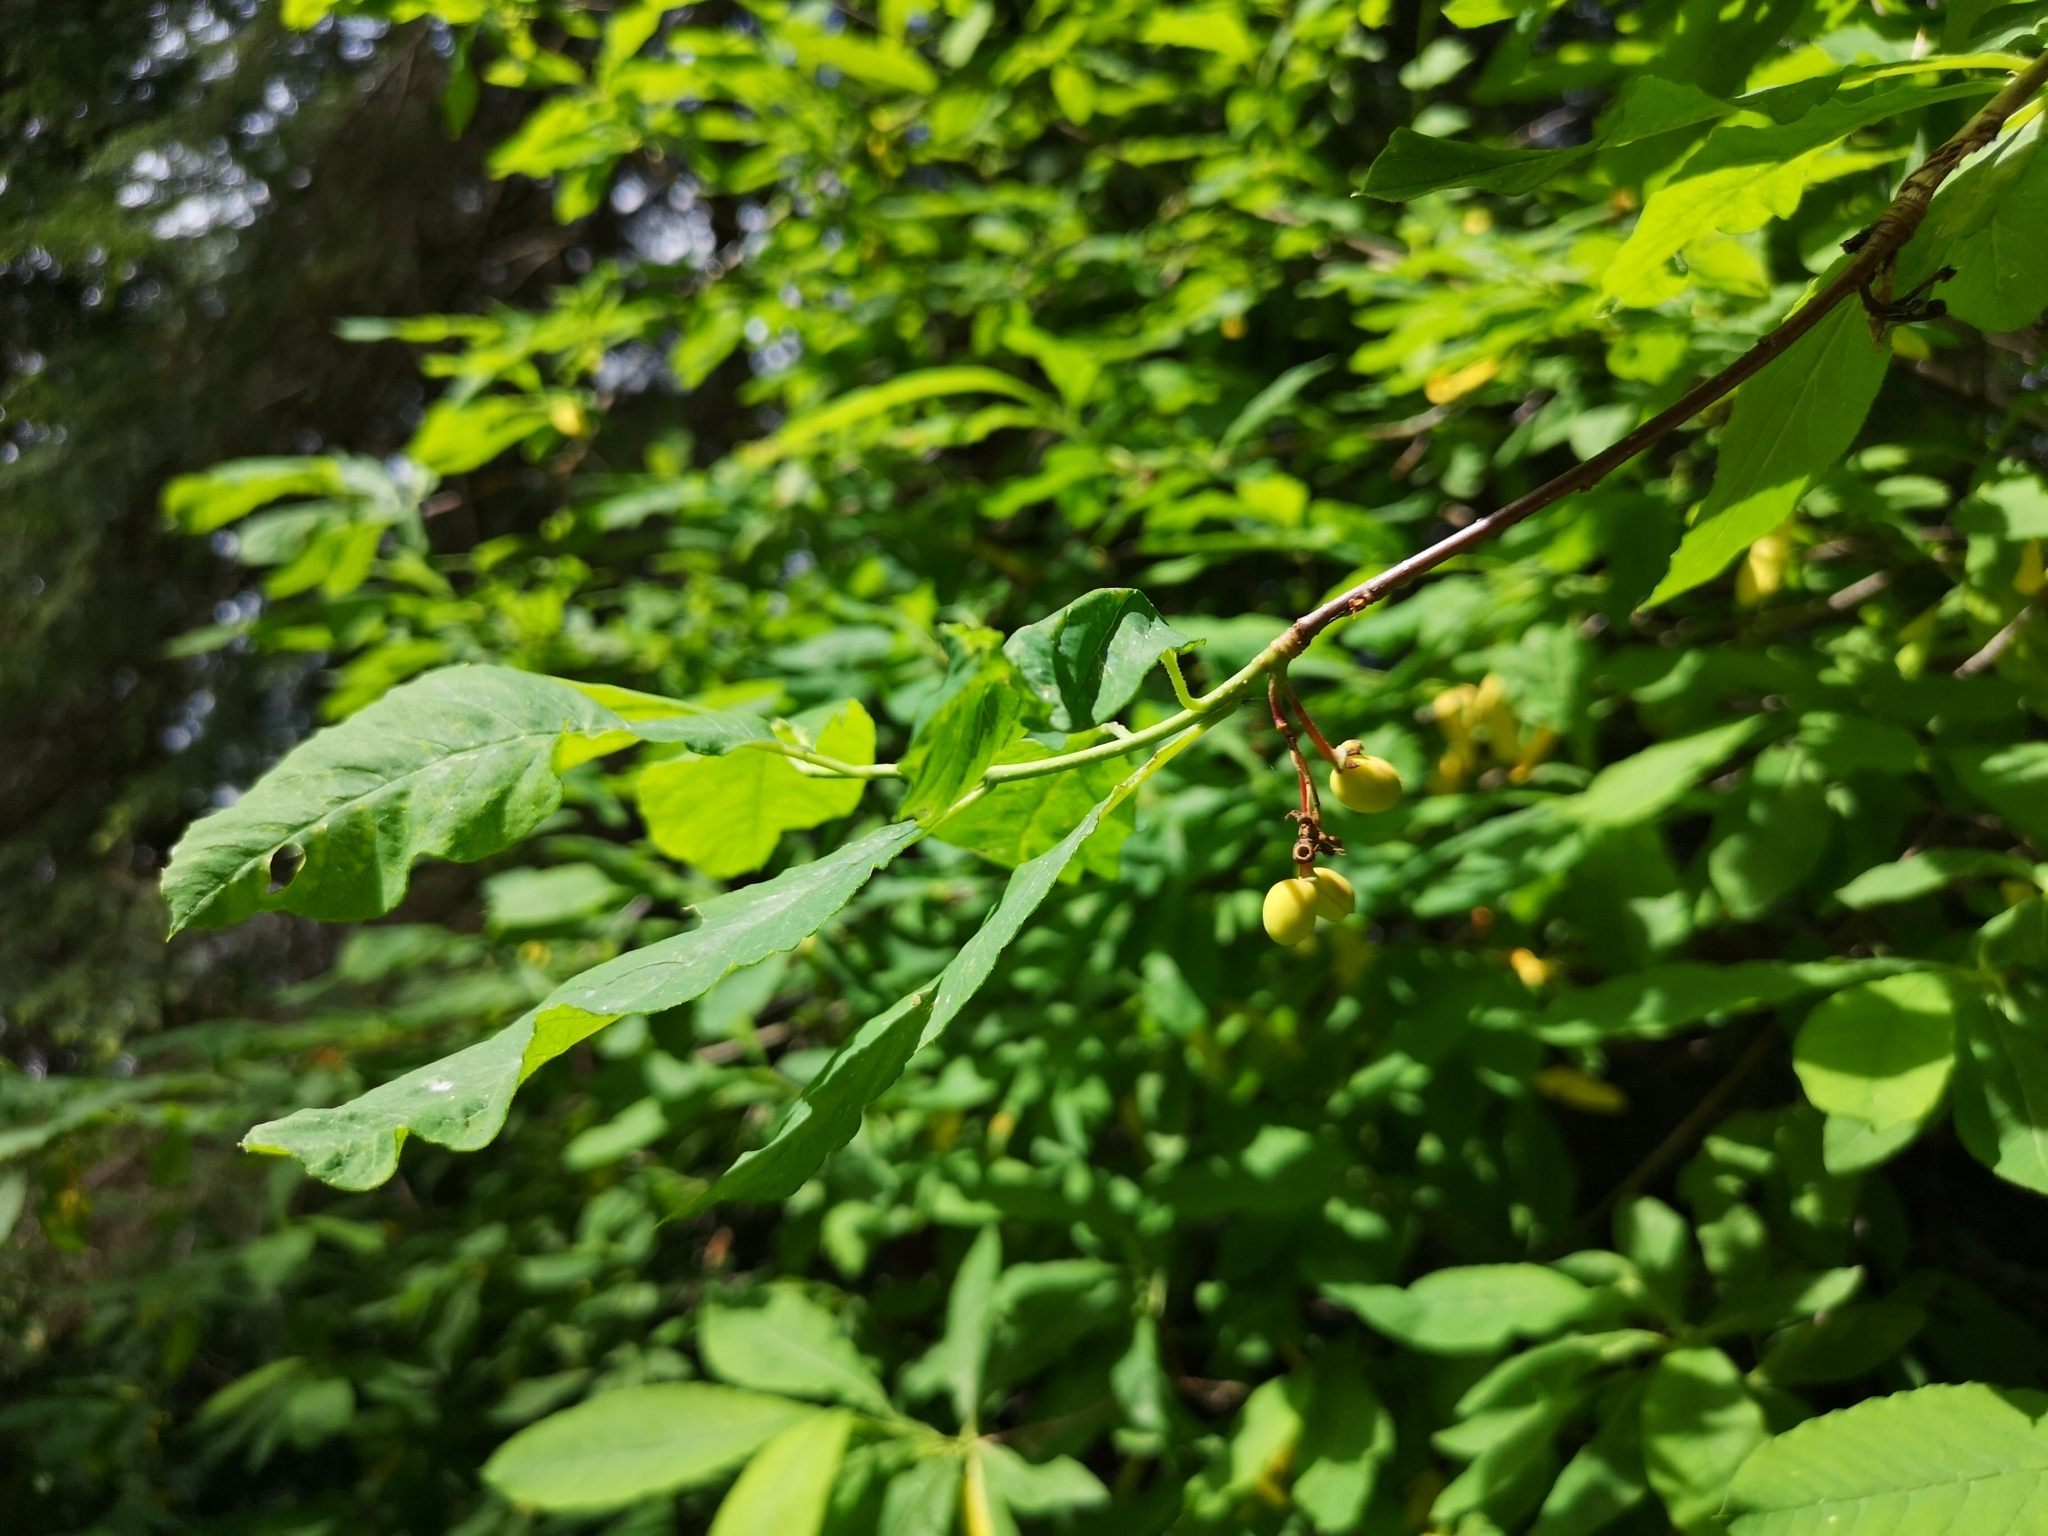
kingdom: Plantae
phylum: Tracheophyta
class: Magnoliopsida
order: Rosales
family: Rosaceae
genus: Oemleria
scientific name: Oemleria cerasiformis
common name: Osoberry
